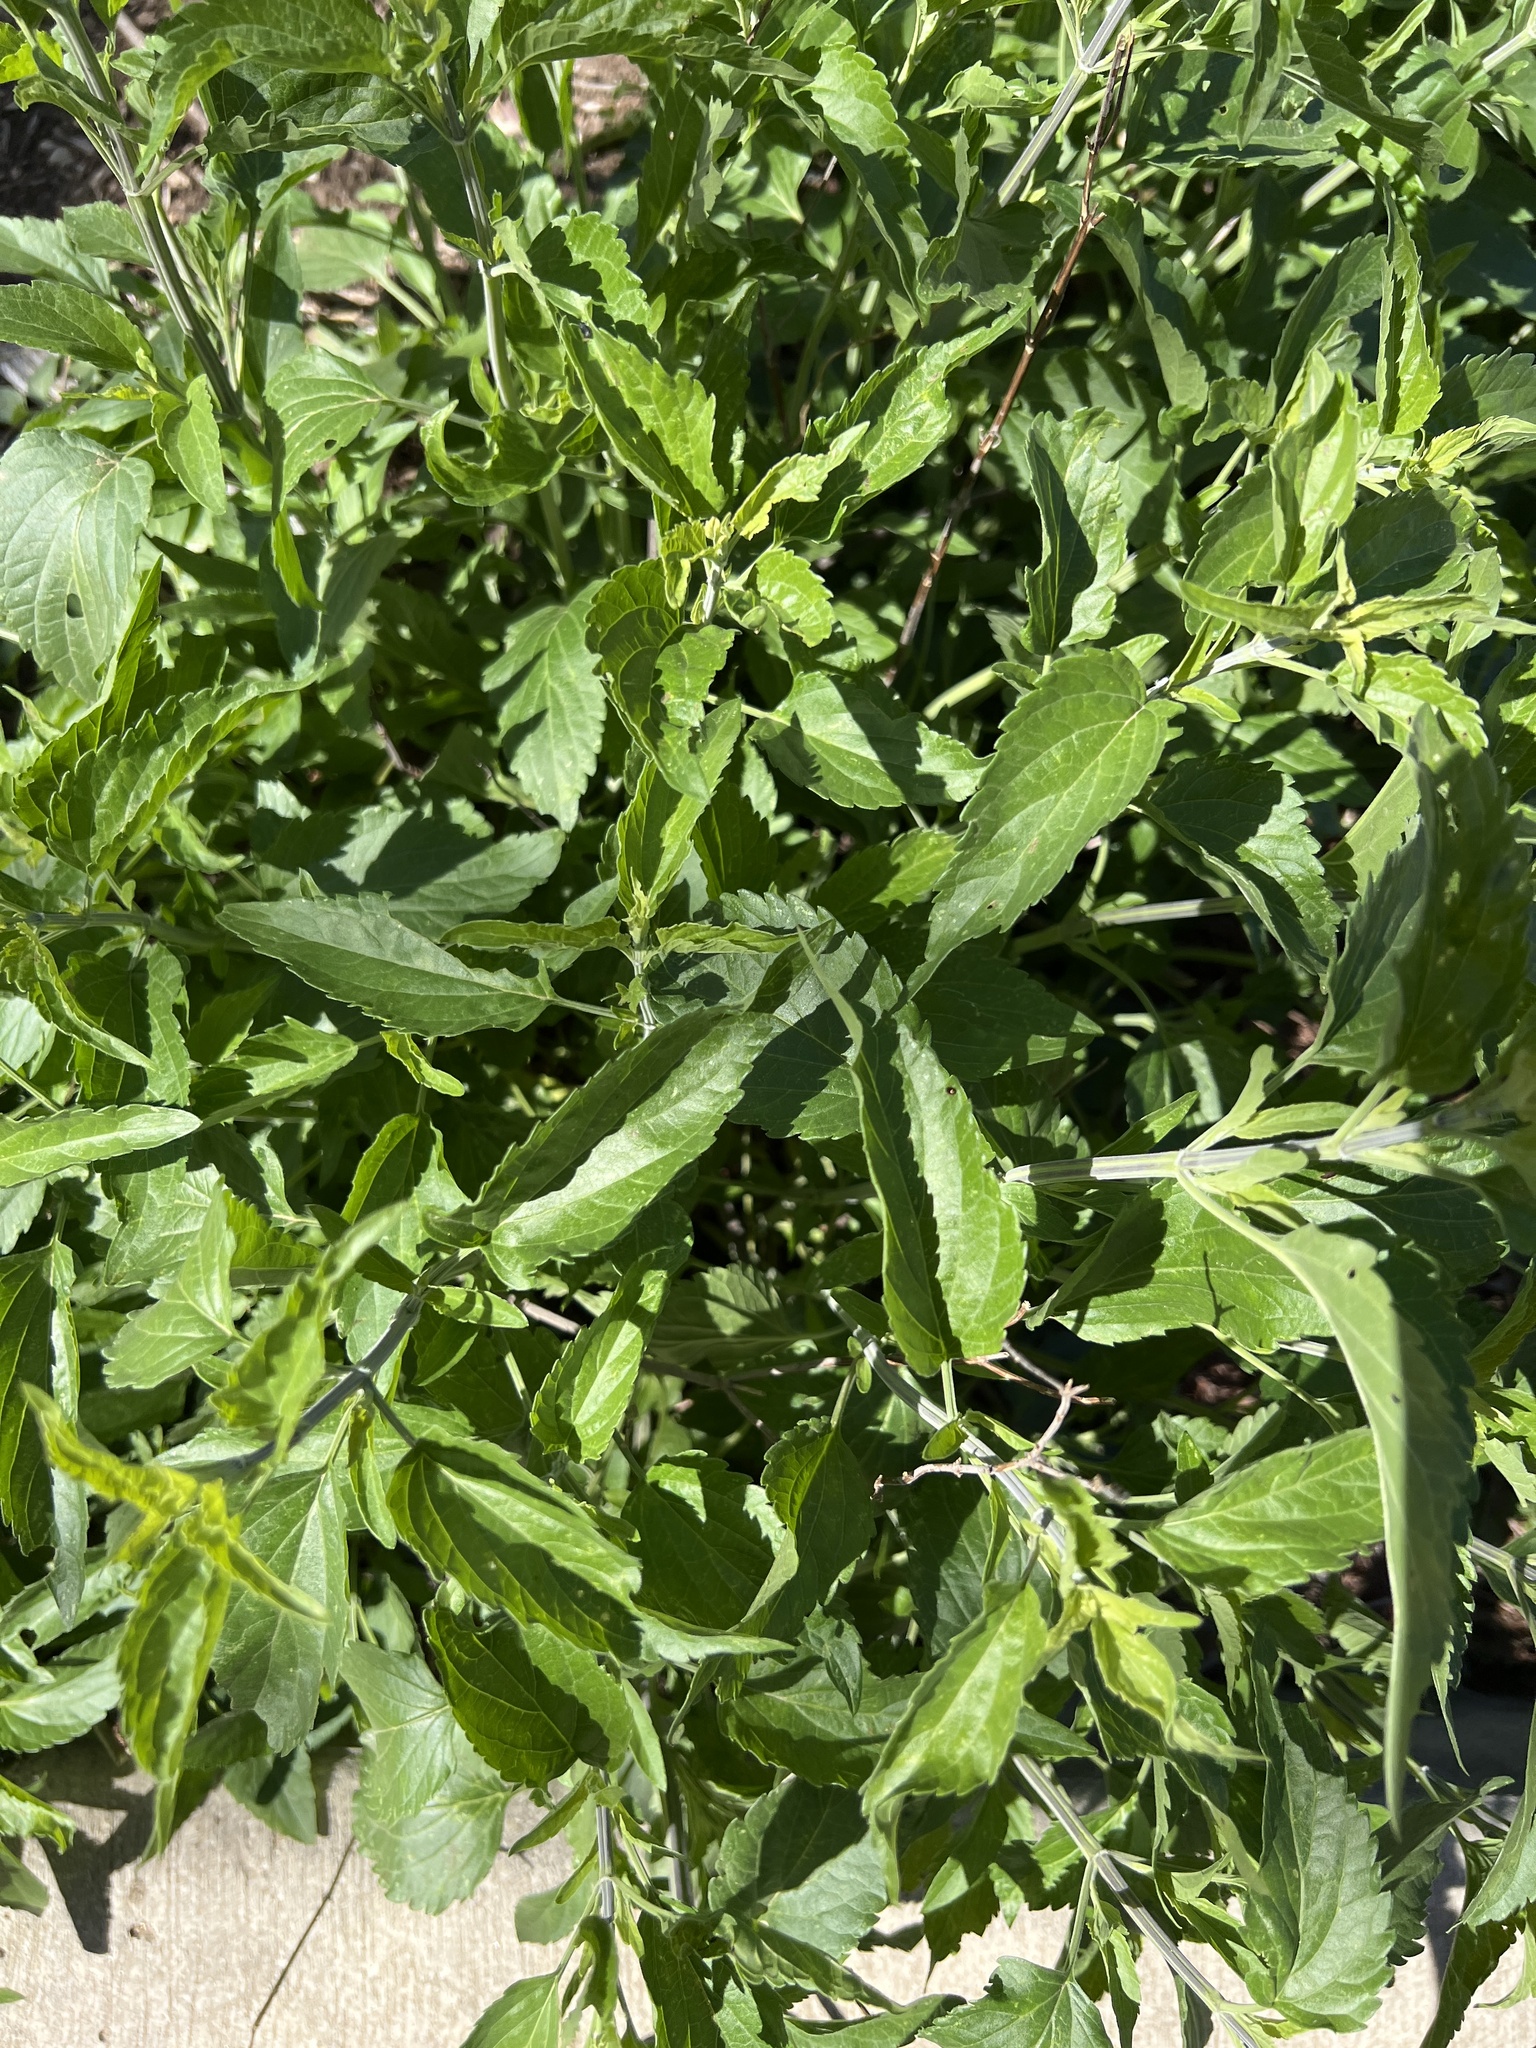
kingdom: Plantae
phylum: Tracheophyta
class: Magnoliopsida
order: Lamiales
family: Lamiaceae
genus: Salvia
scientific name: Salvia farinacea
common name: Mealy sage
